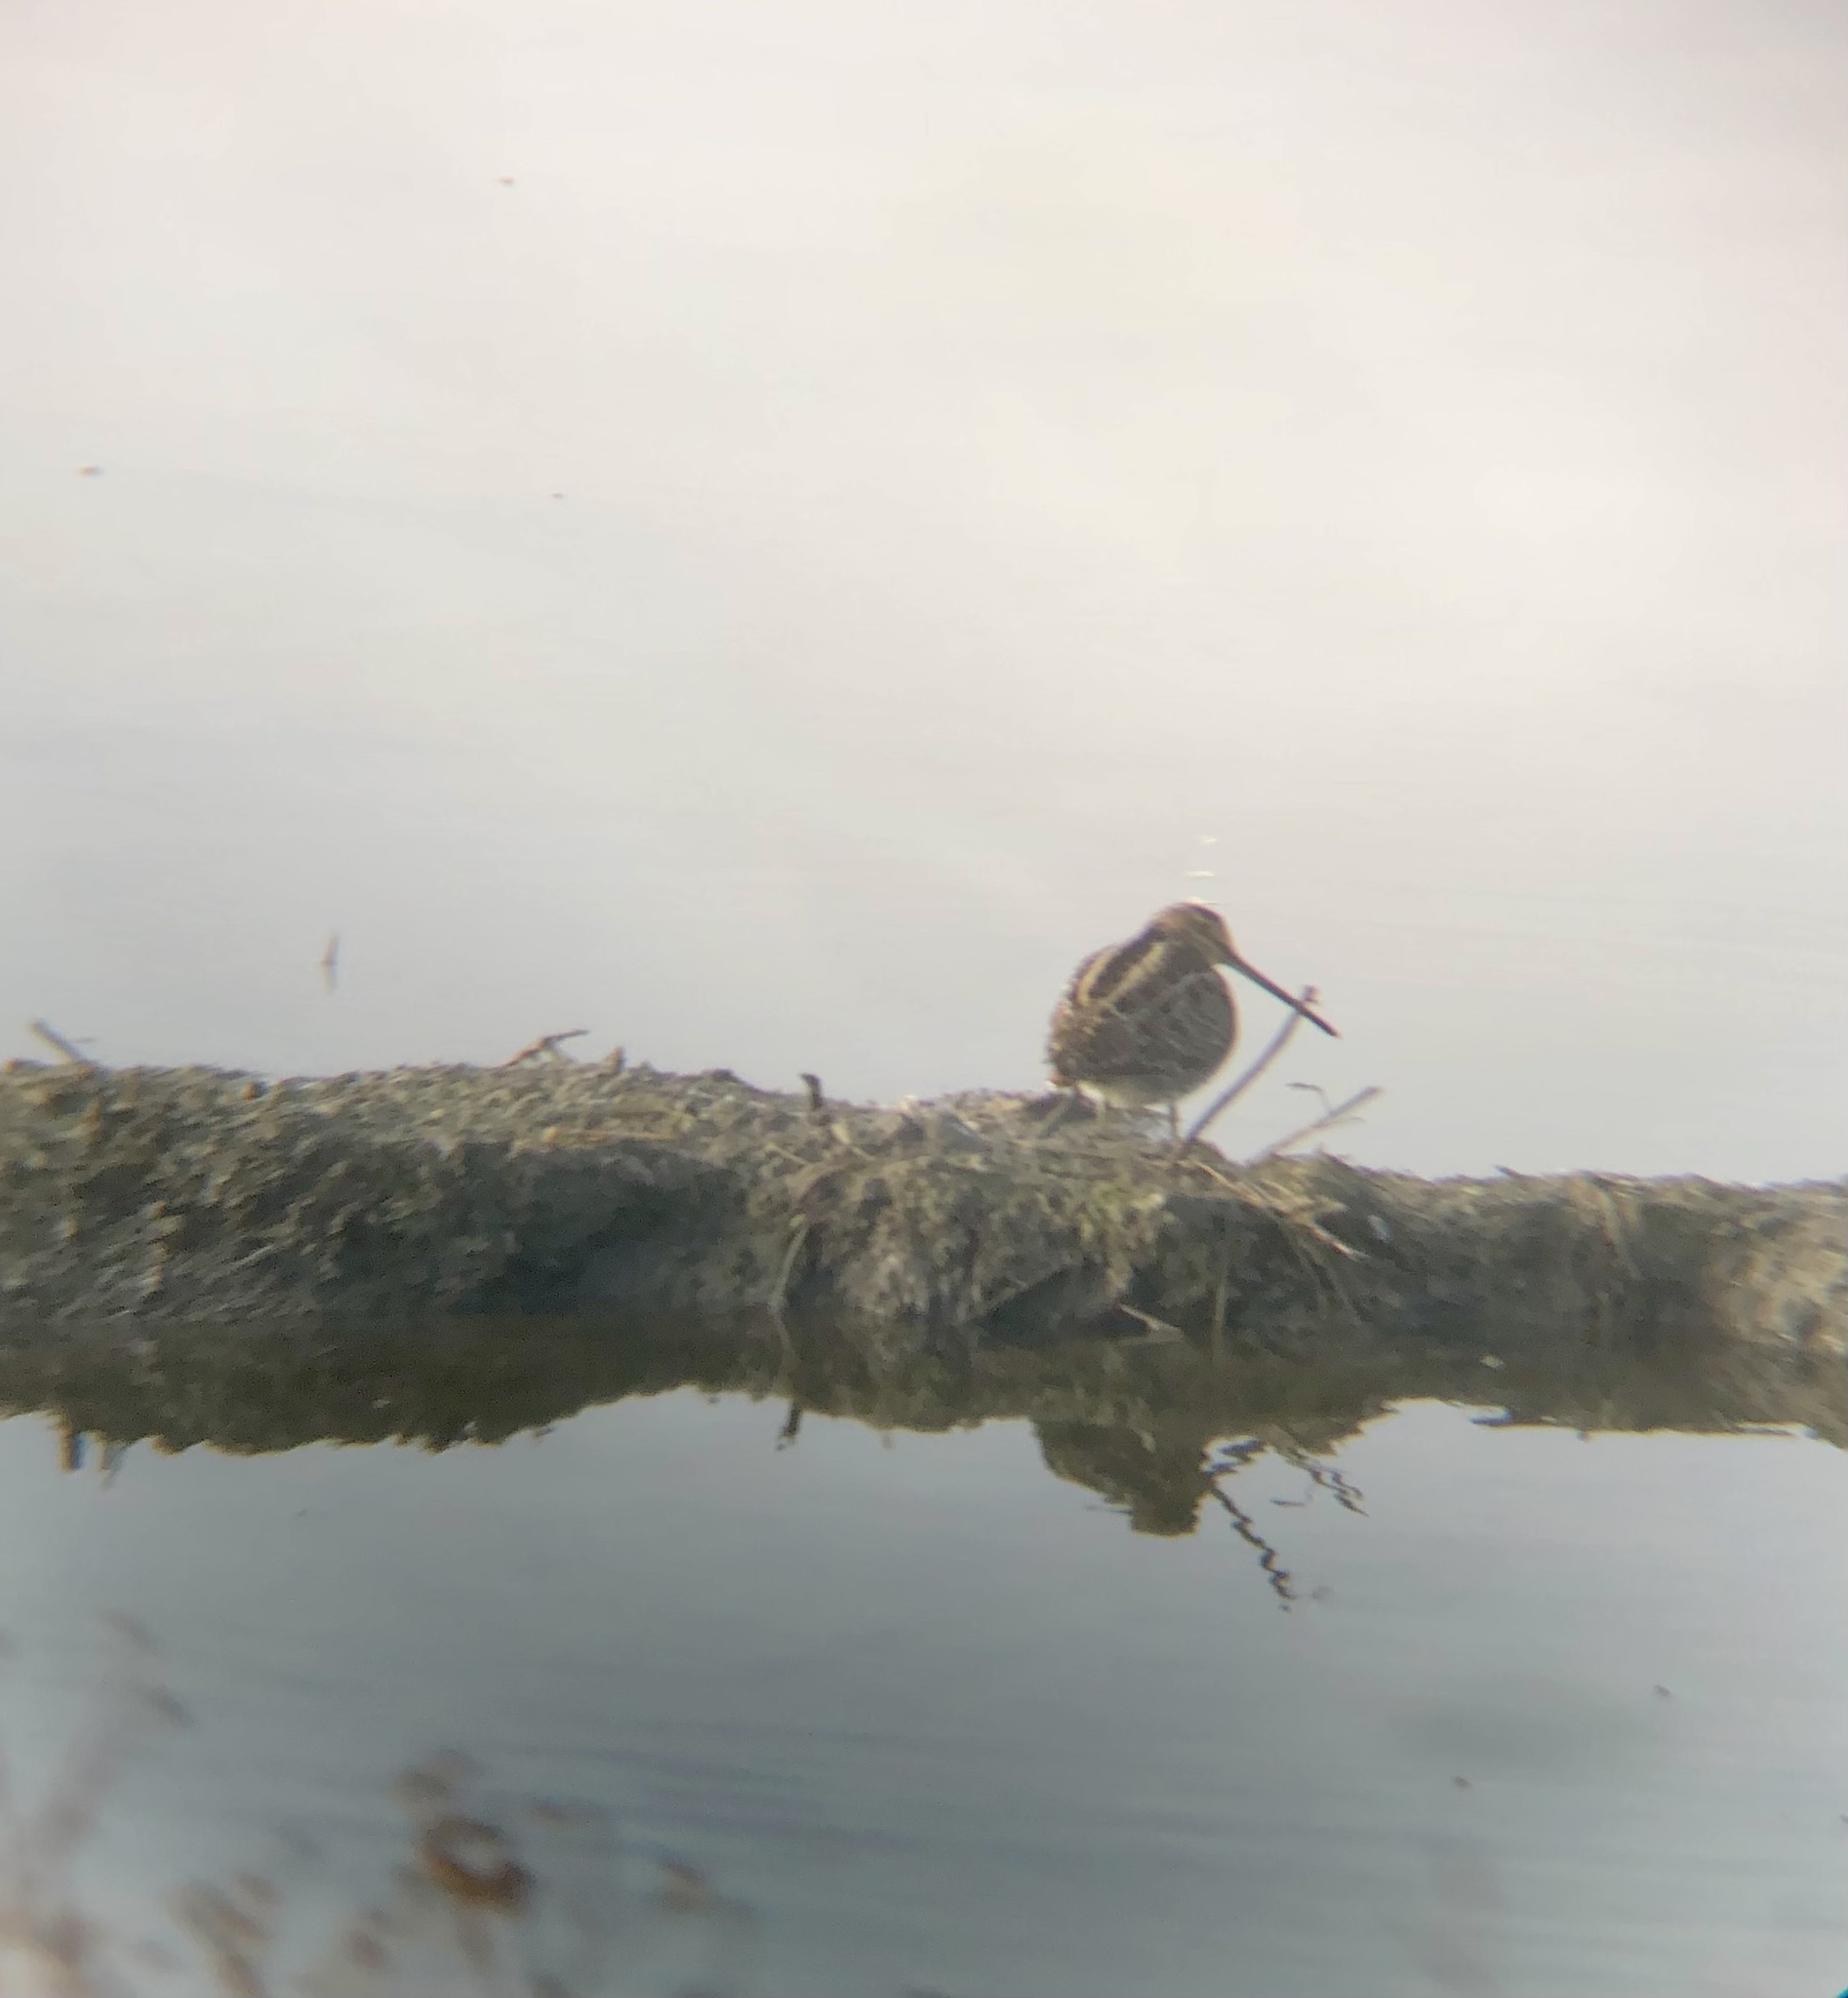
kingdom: Animalia
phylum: Chordata
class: Aves
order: Charadriiformes
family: Scolopacidae
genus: Gallinago
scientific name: Gallinago delicata
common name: Wilson's snipe
